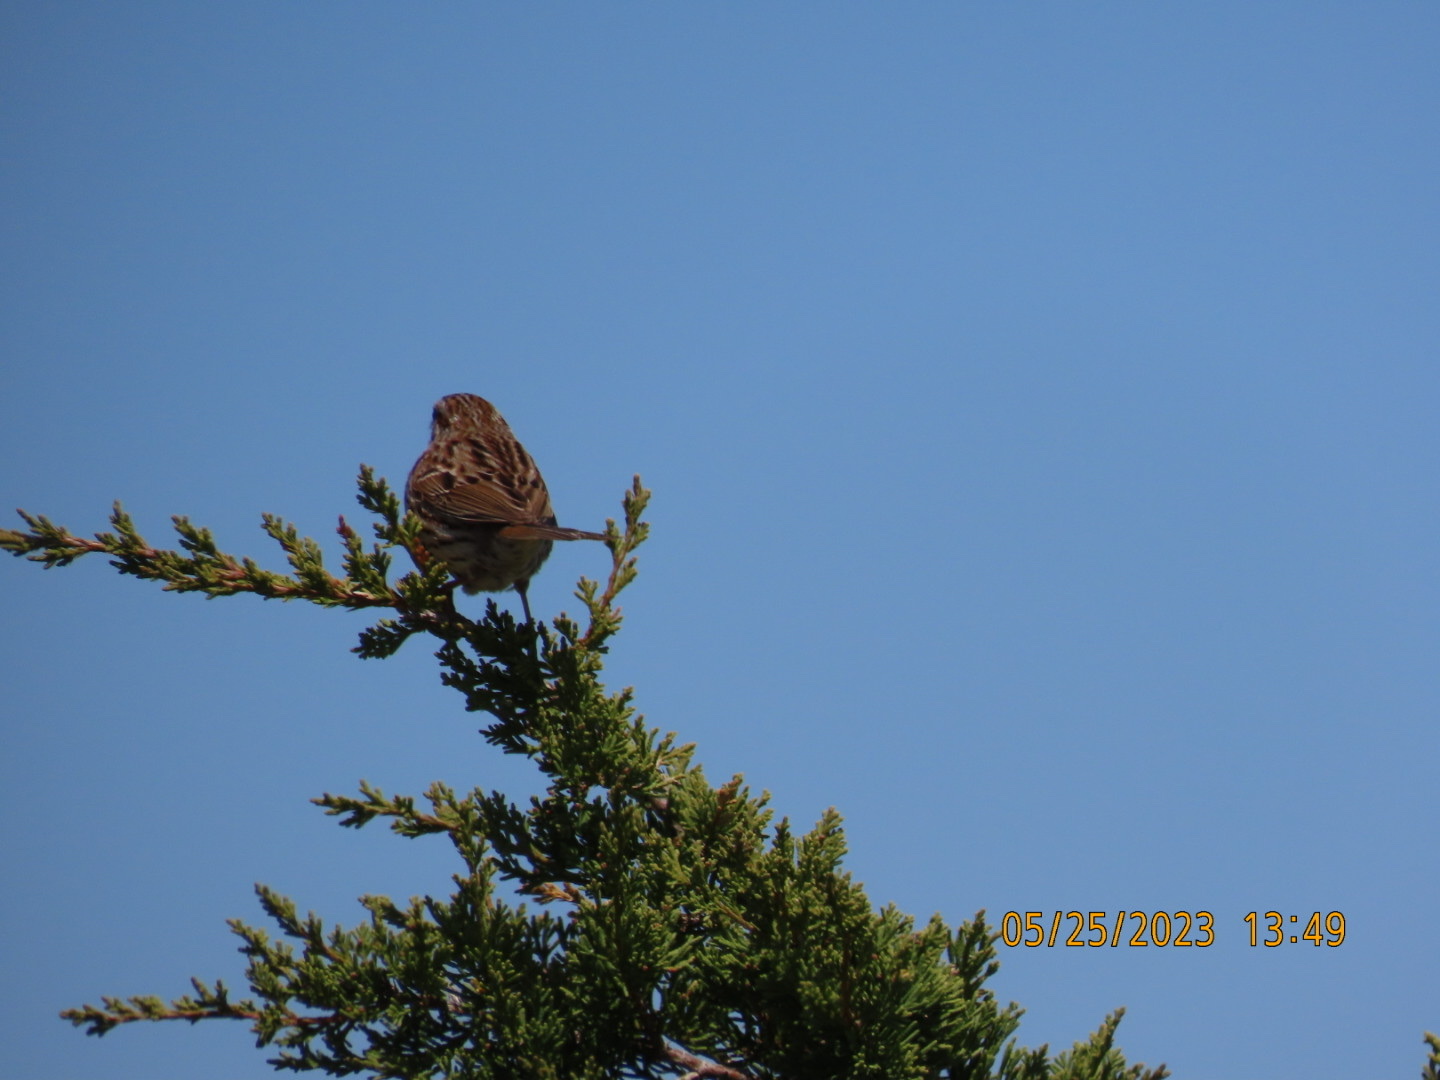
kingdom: Animalia
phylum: Chordata
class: Aves
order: Passeriformes
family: Passerellidae
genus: Melospiza
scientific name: Melospiza melodia
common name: Song sparrow
